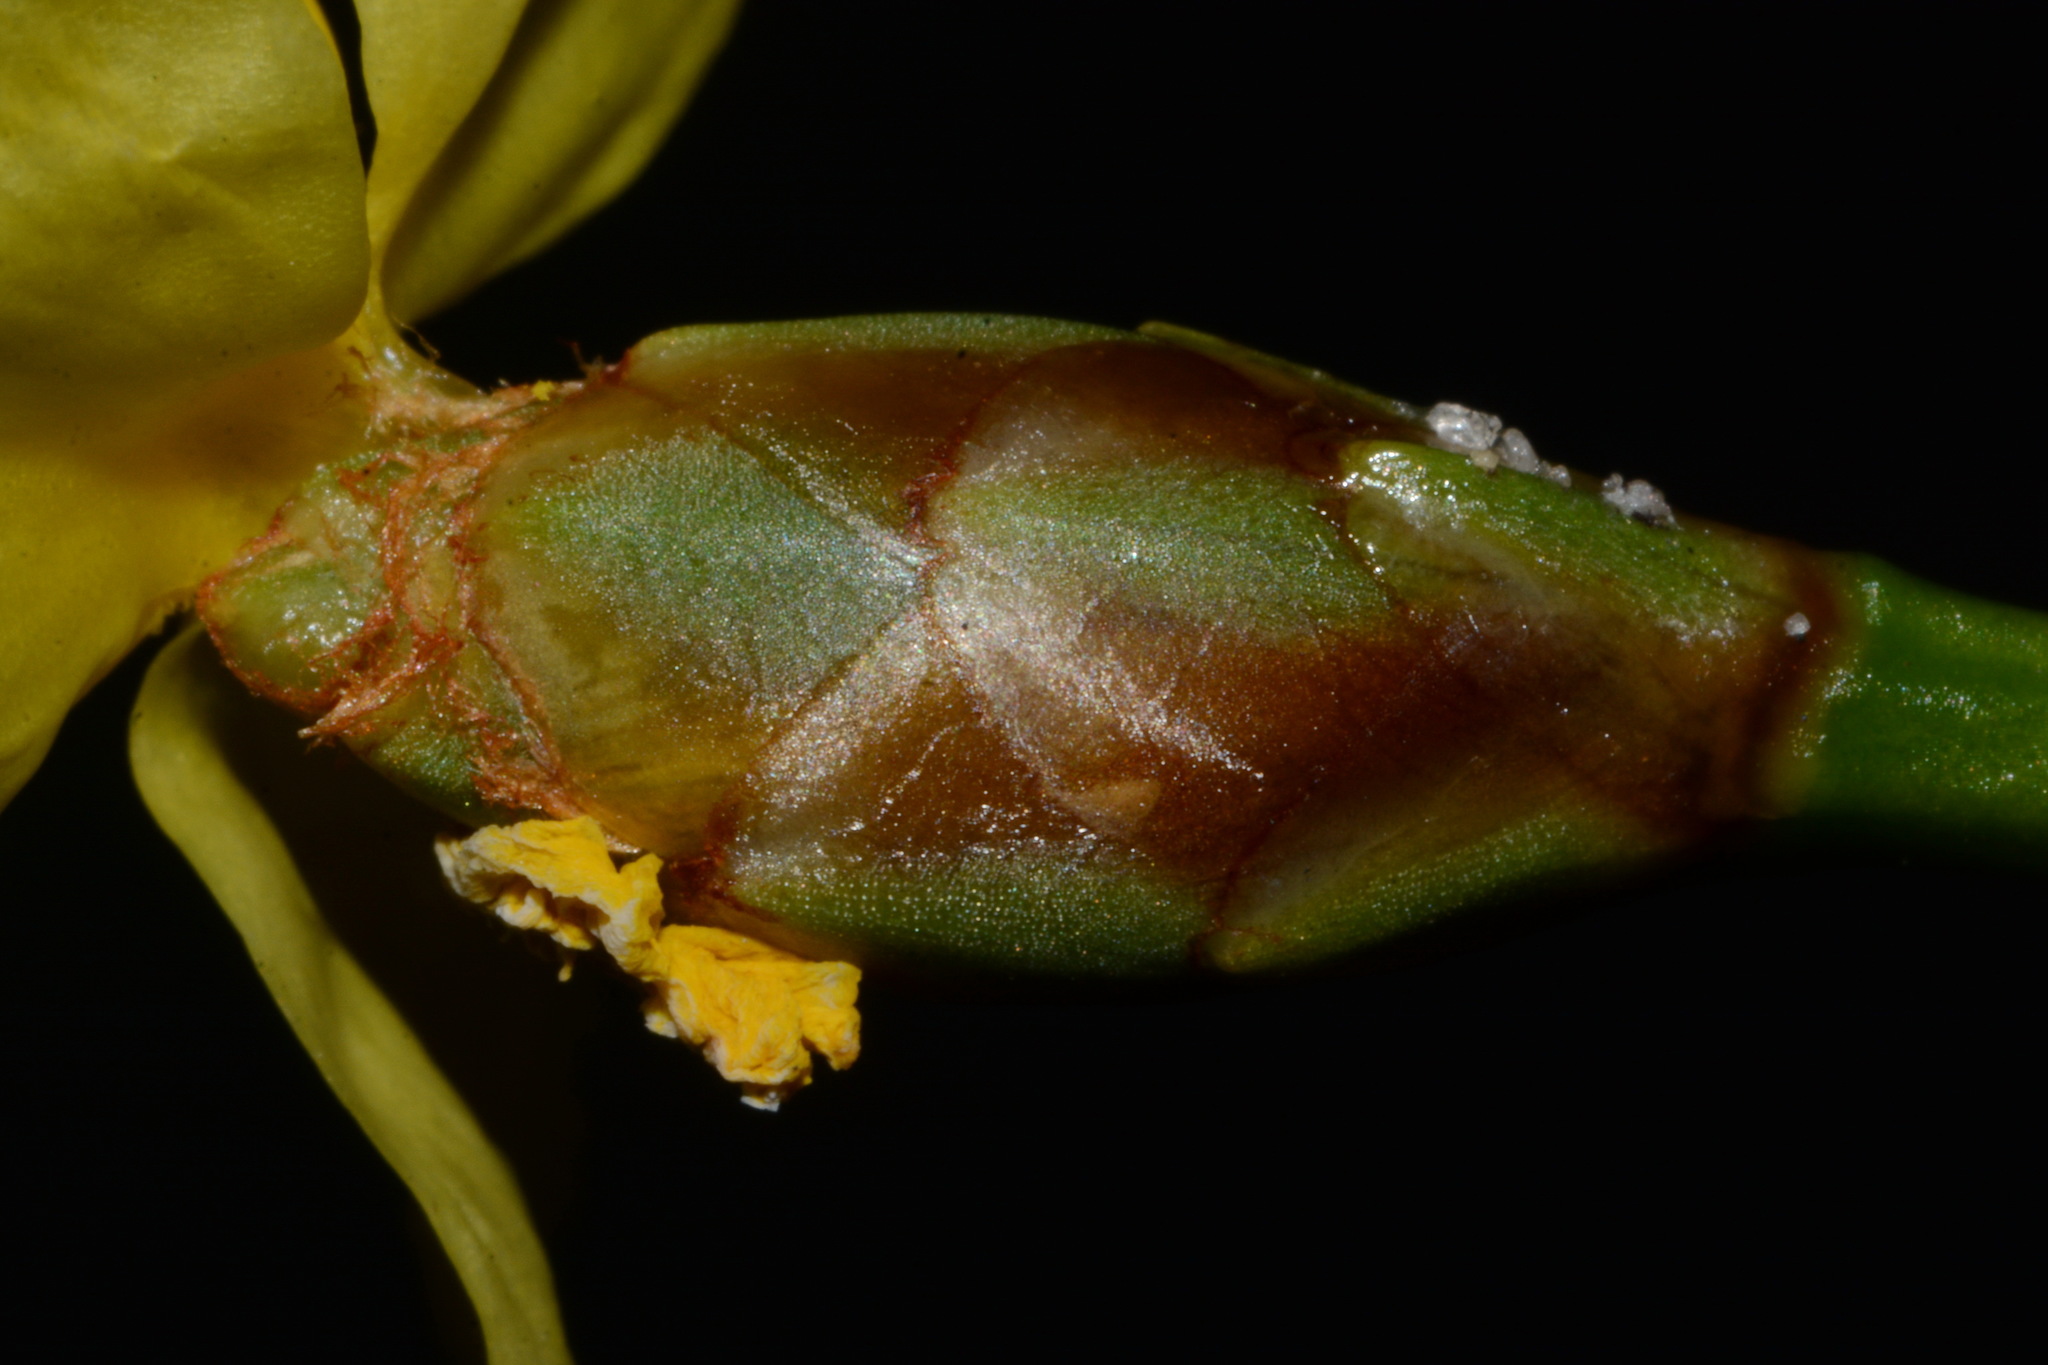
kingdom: Plantae
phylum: Tracheophyta
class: Liliopsida
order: Poales
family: Xyridaceae
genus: Xyris
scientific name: Xyris caroliniana
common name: Carolina yellow-eyed-grass
